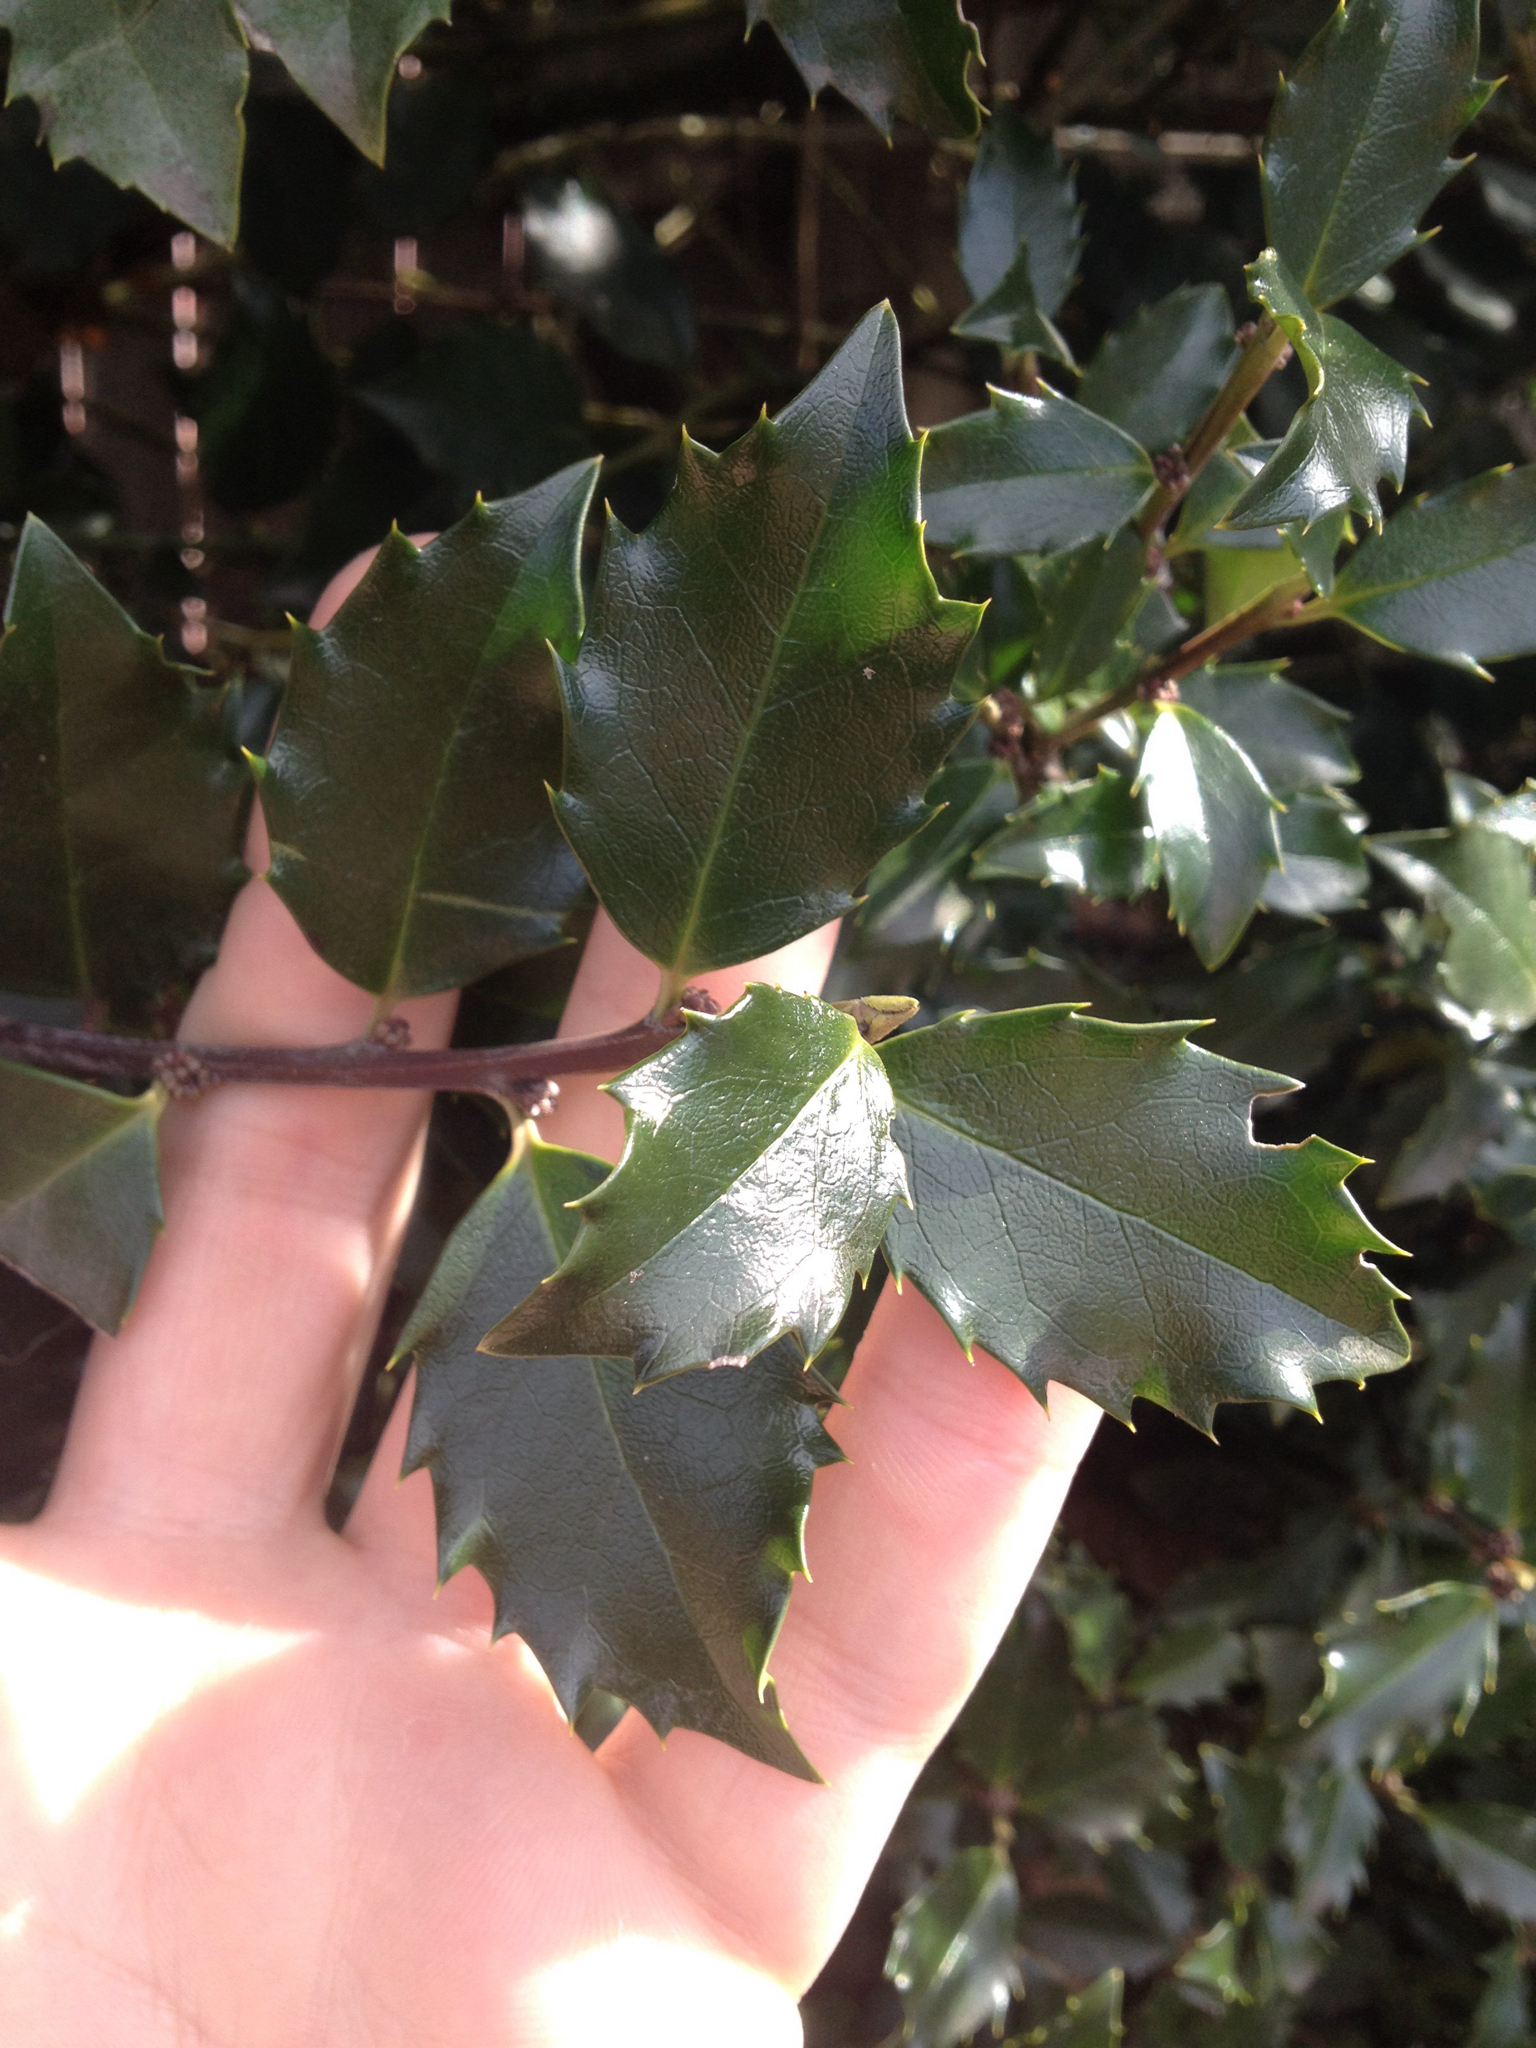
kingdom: Plantae
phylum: Tracheophyta
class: Magnoliopsida
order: Aquifoliales
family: Aquifoliaceae
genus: Ilex
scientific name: Ilex opaca
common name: American holly
